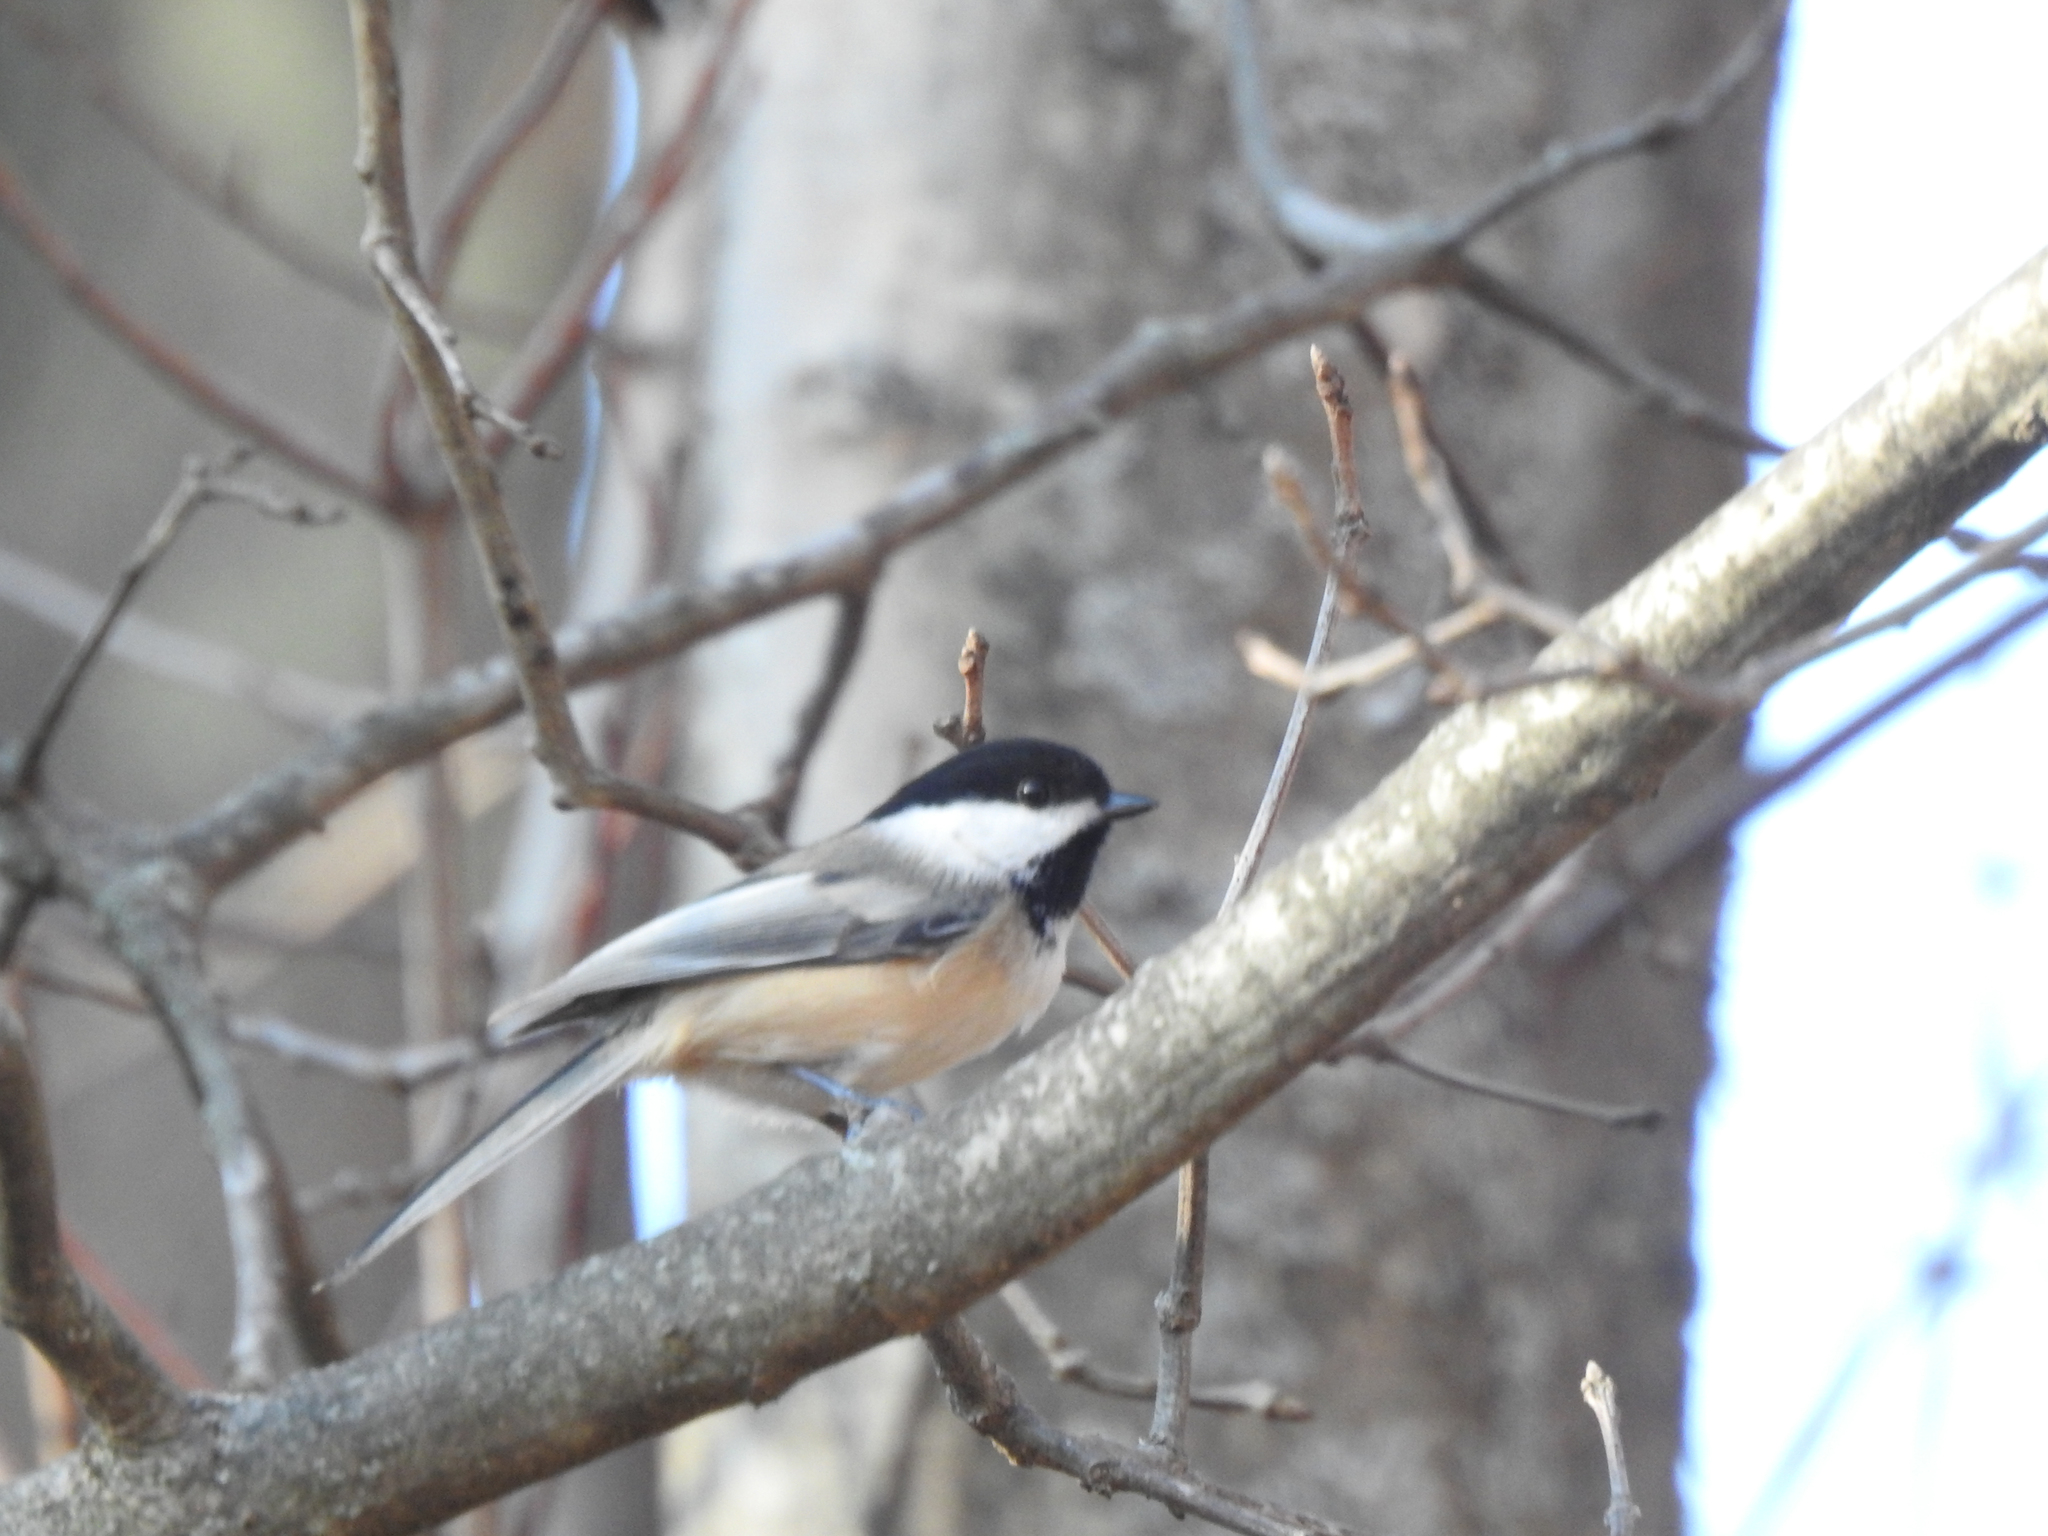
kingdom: Animalia
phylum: Chordata
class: Aves
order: Passeriformes
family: Paridae
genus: Poecile
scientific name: Poecile atricapillus
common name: Black-capped chickadee
